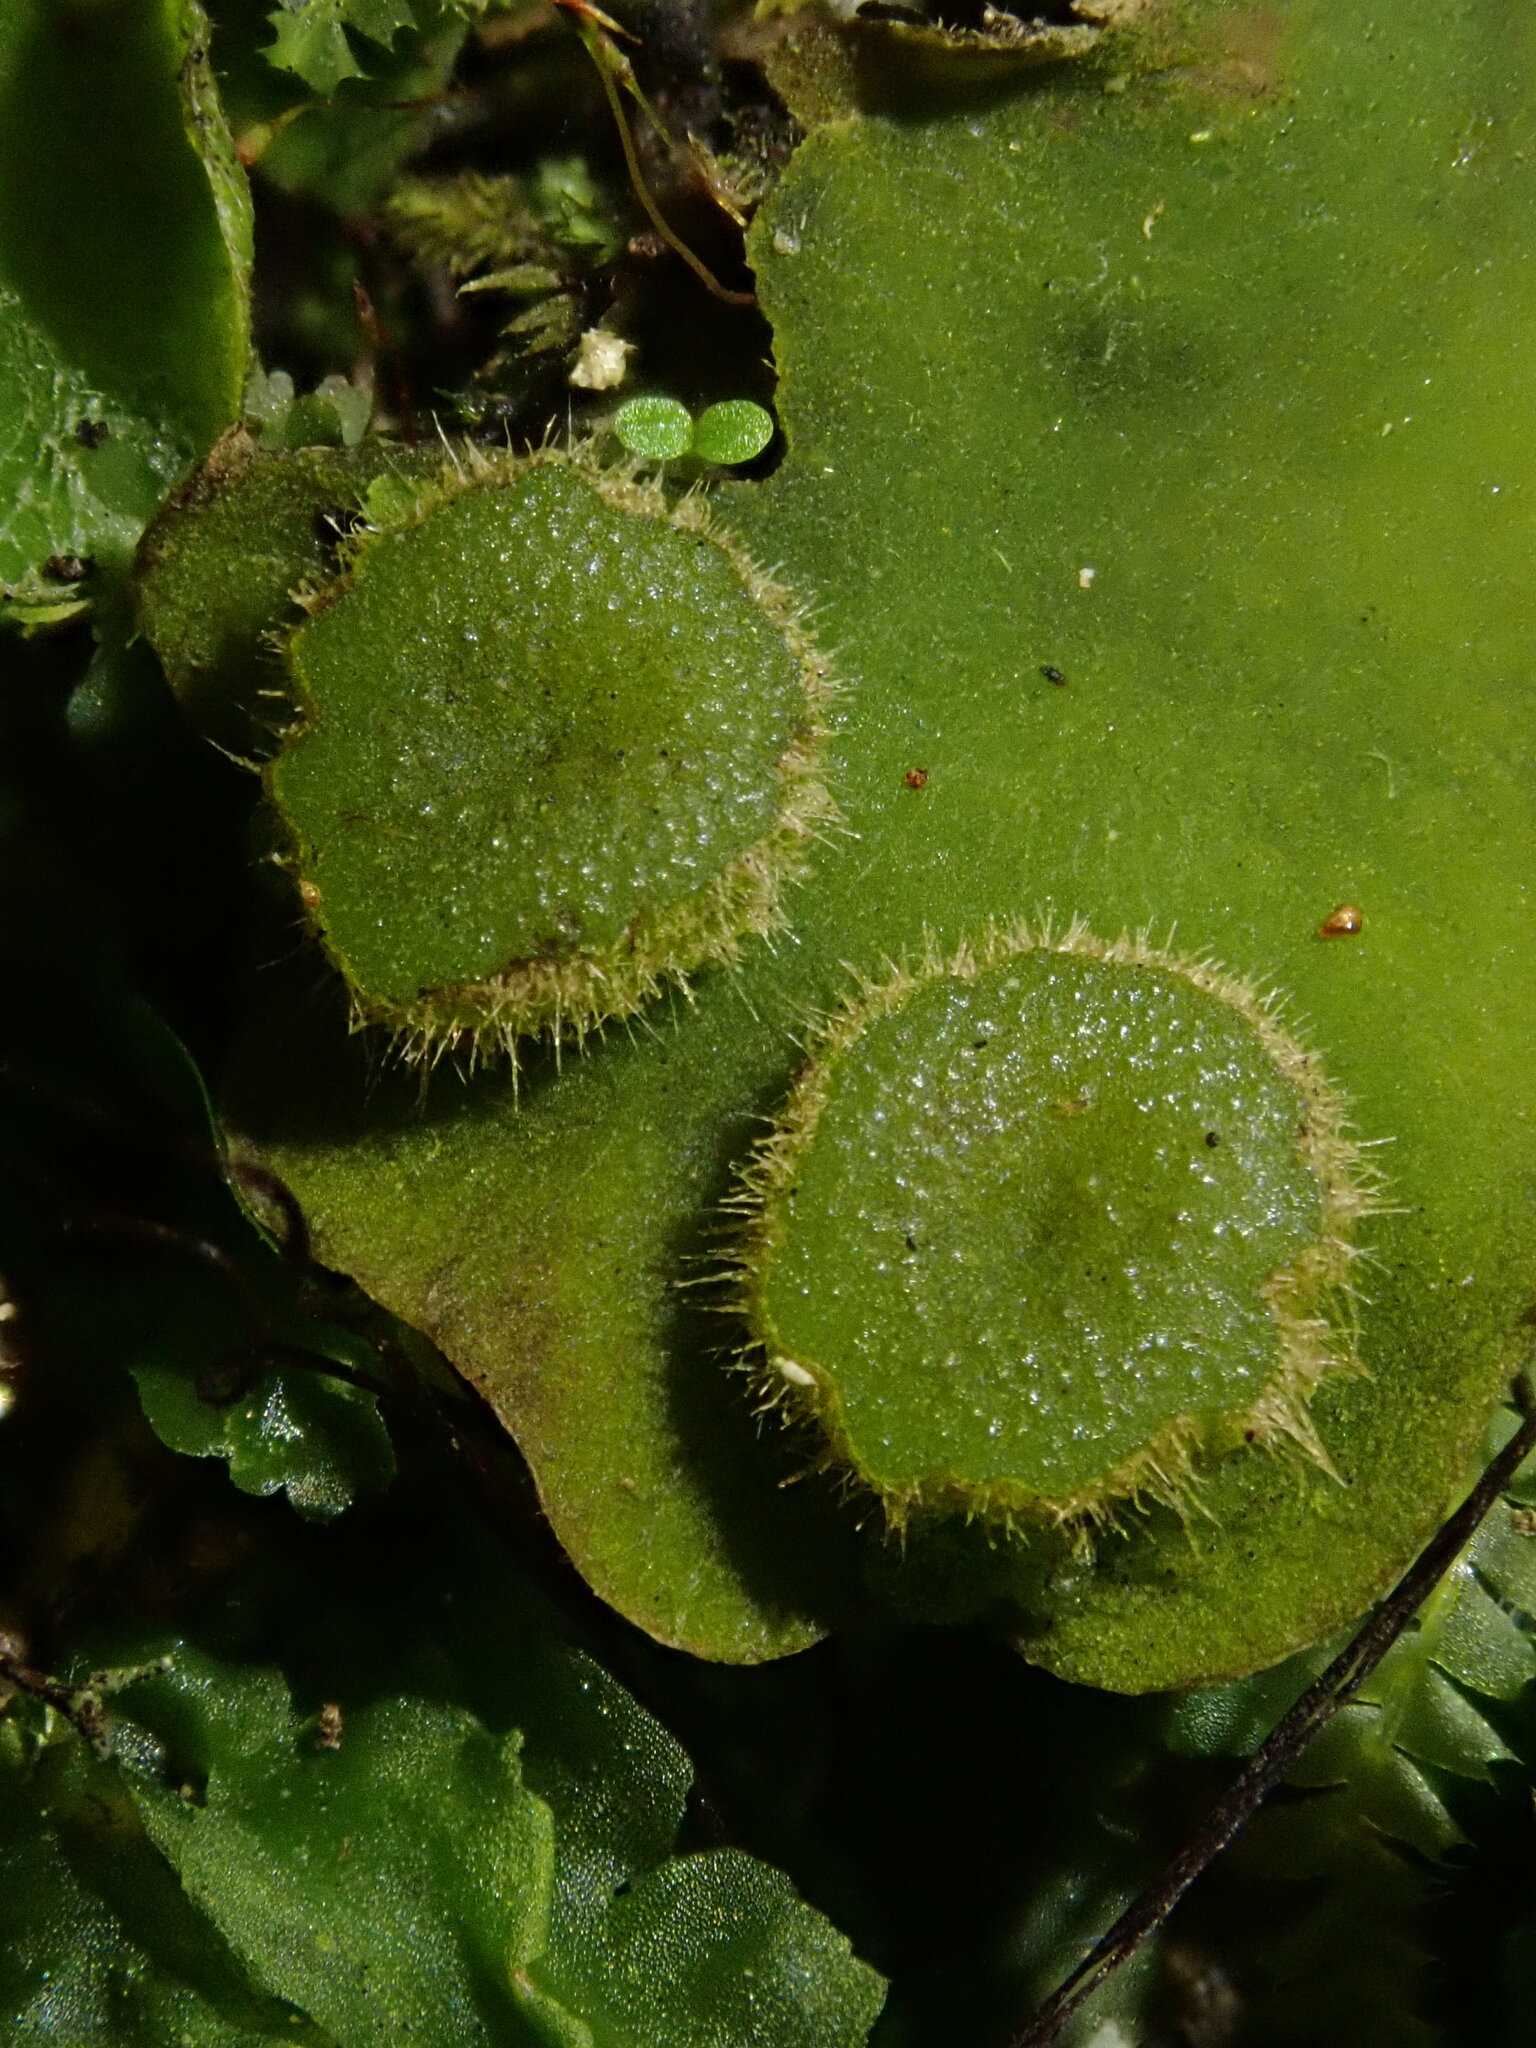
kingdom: Plantae
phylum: Marchantiophyta
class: Marchantiopsida
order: Marchantiales
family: Dumortieraceae
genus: Dumortiera
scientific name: Dumortiera hirsuta
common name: Dumortier's liverwort
